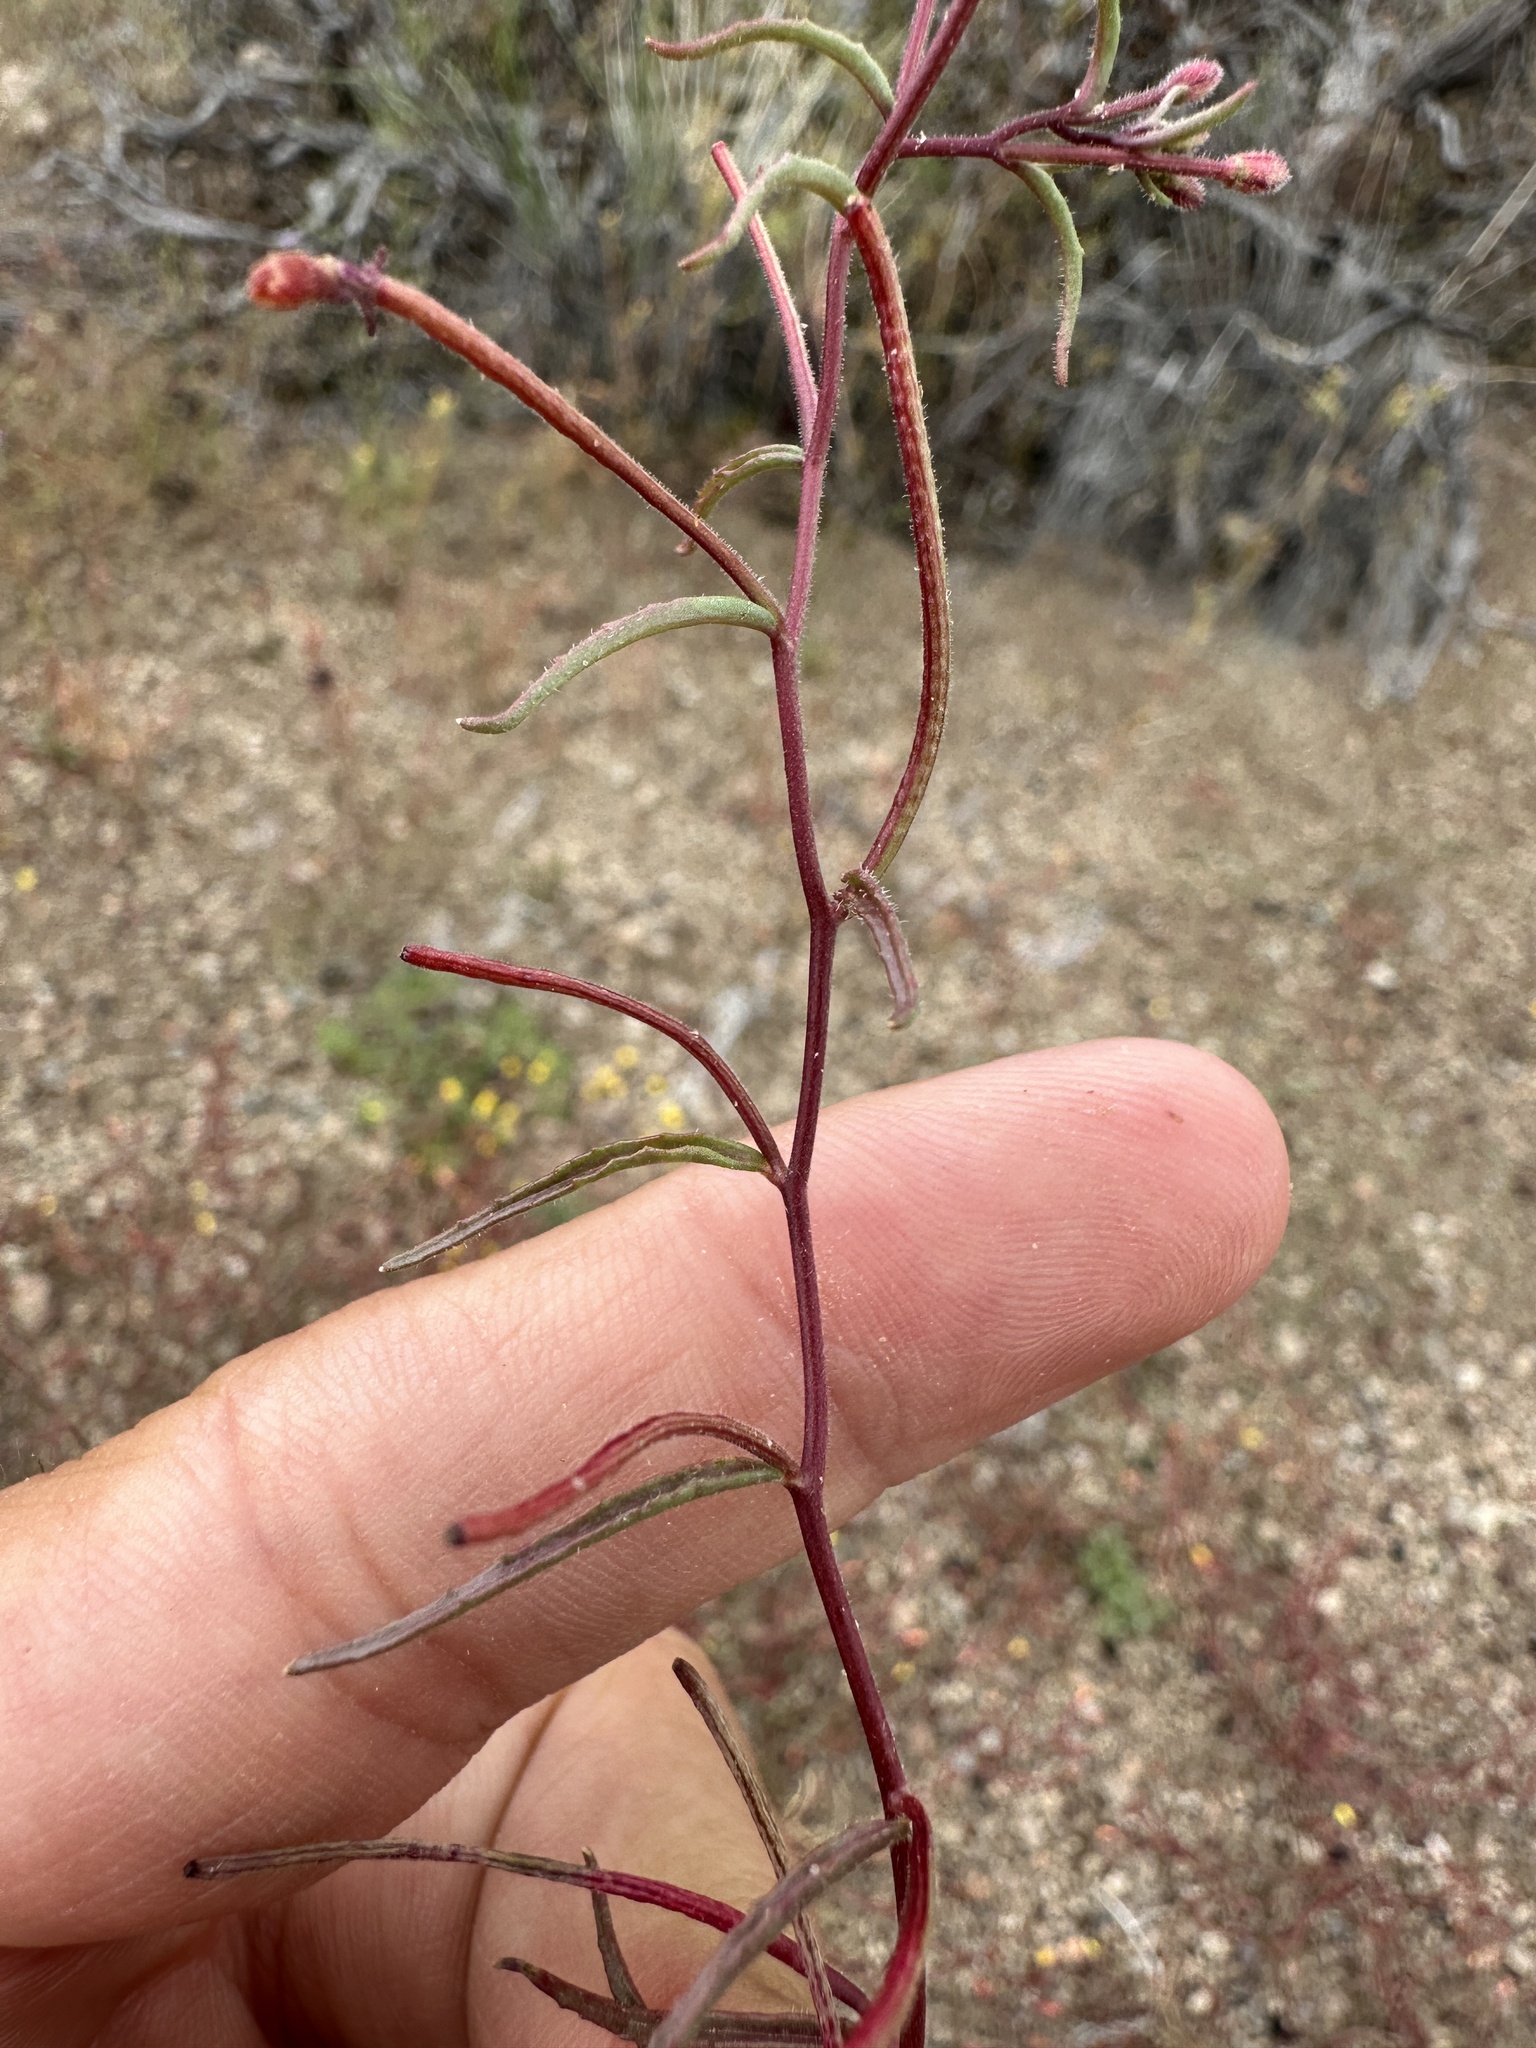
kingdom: Plantae
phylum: Tracheophyta
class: Magnoliopsida
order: Myrtales
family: Onagraceae
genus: Camissonia
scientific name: Camissonia parvula
